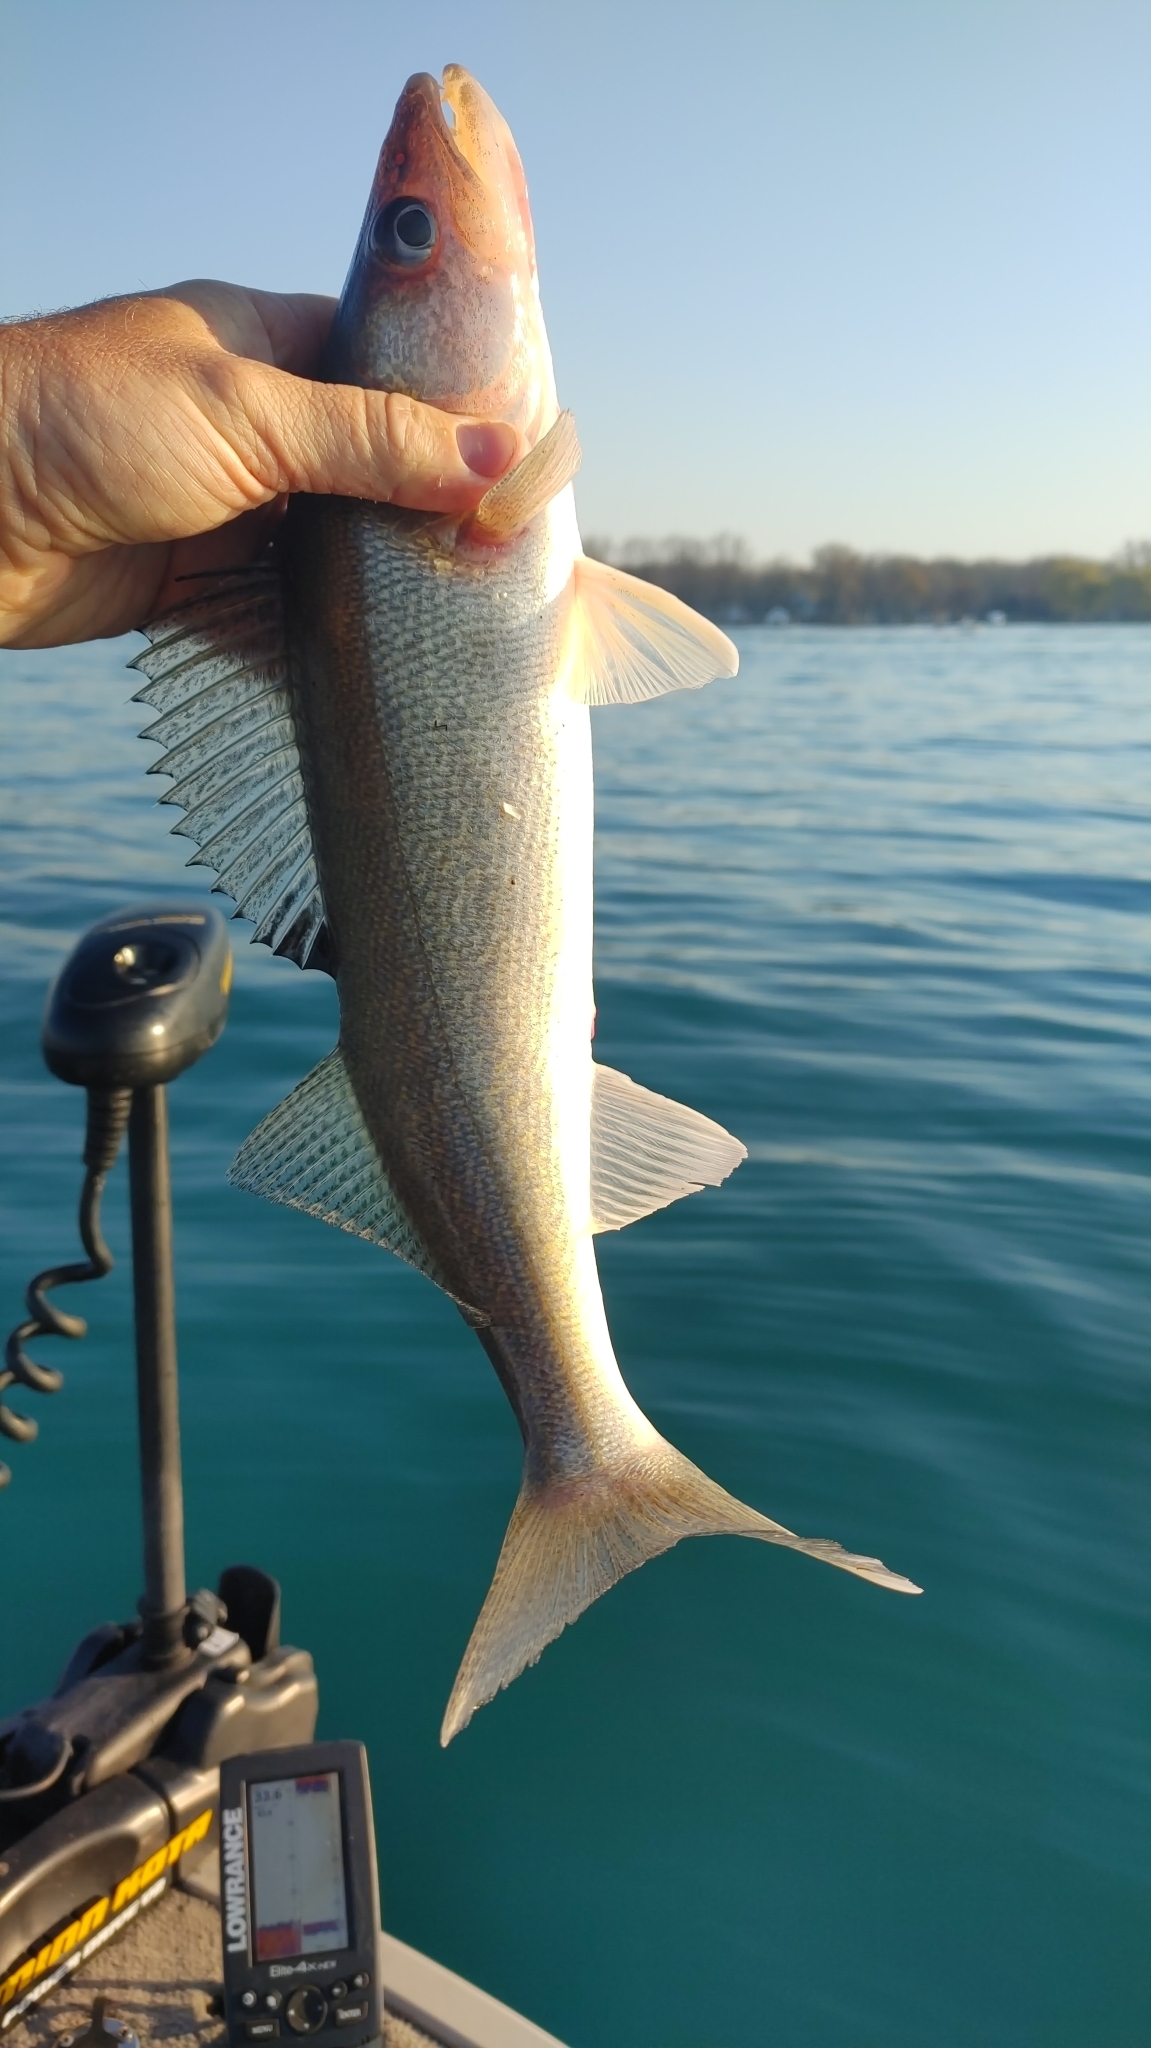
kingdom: Animalia
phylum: Chordata
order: Perciformes
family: Percidae
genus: Sander
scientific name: Sander vitreus
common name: Walleye
